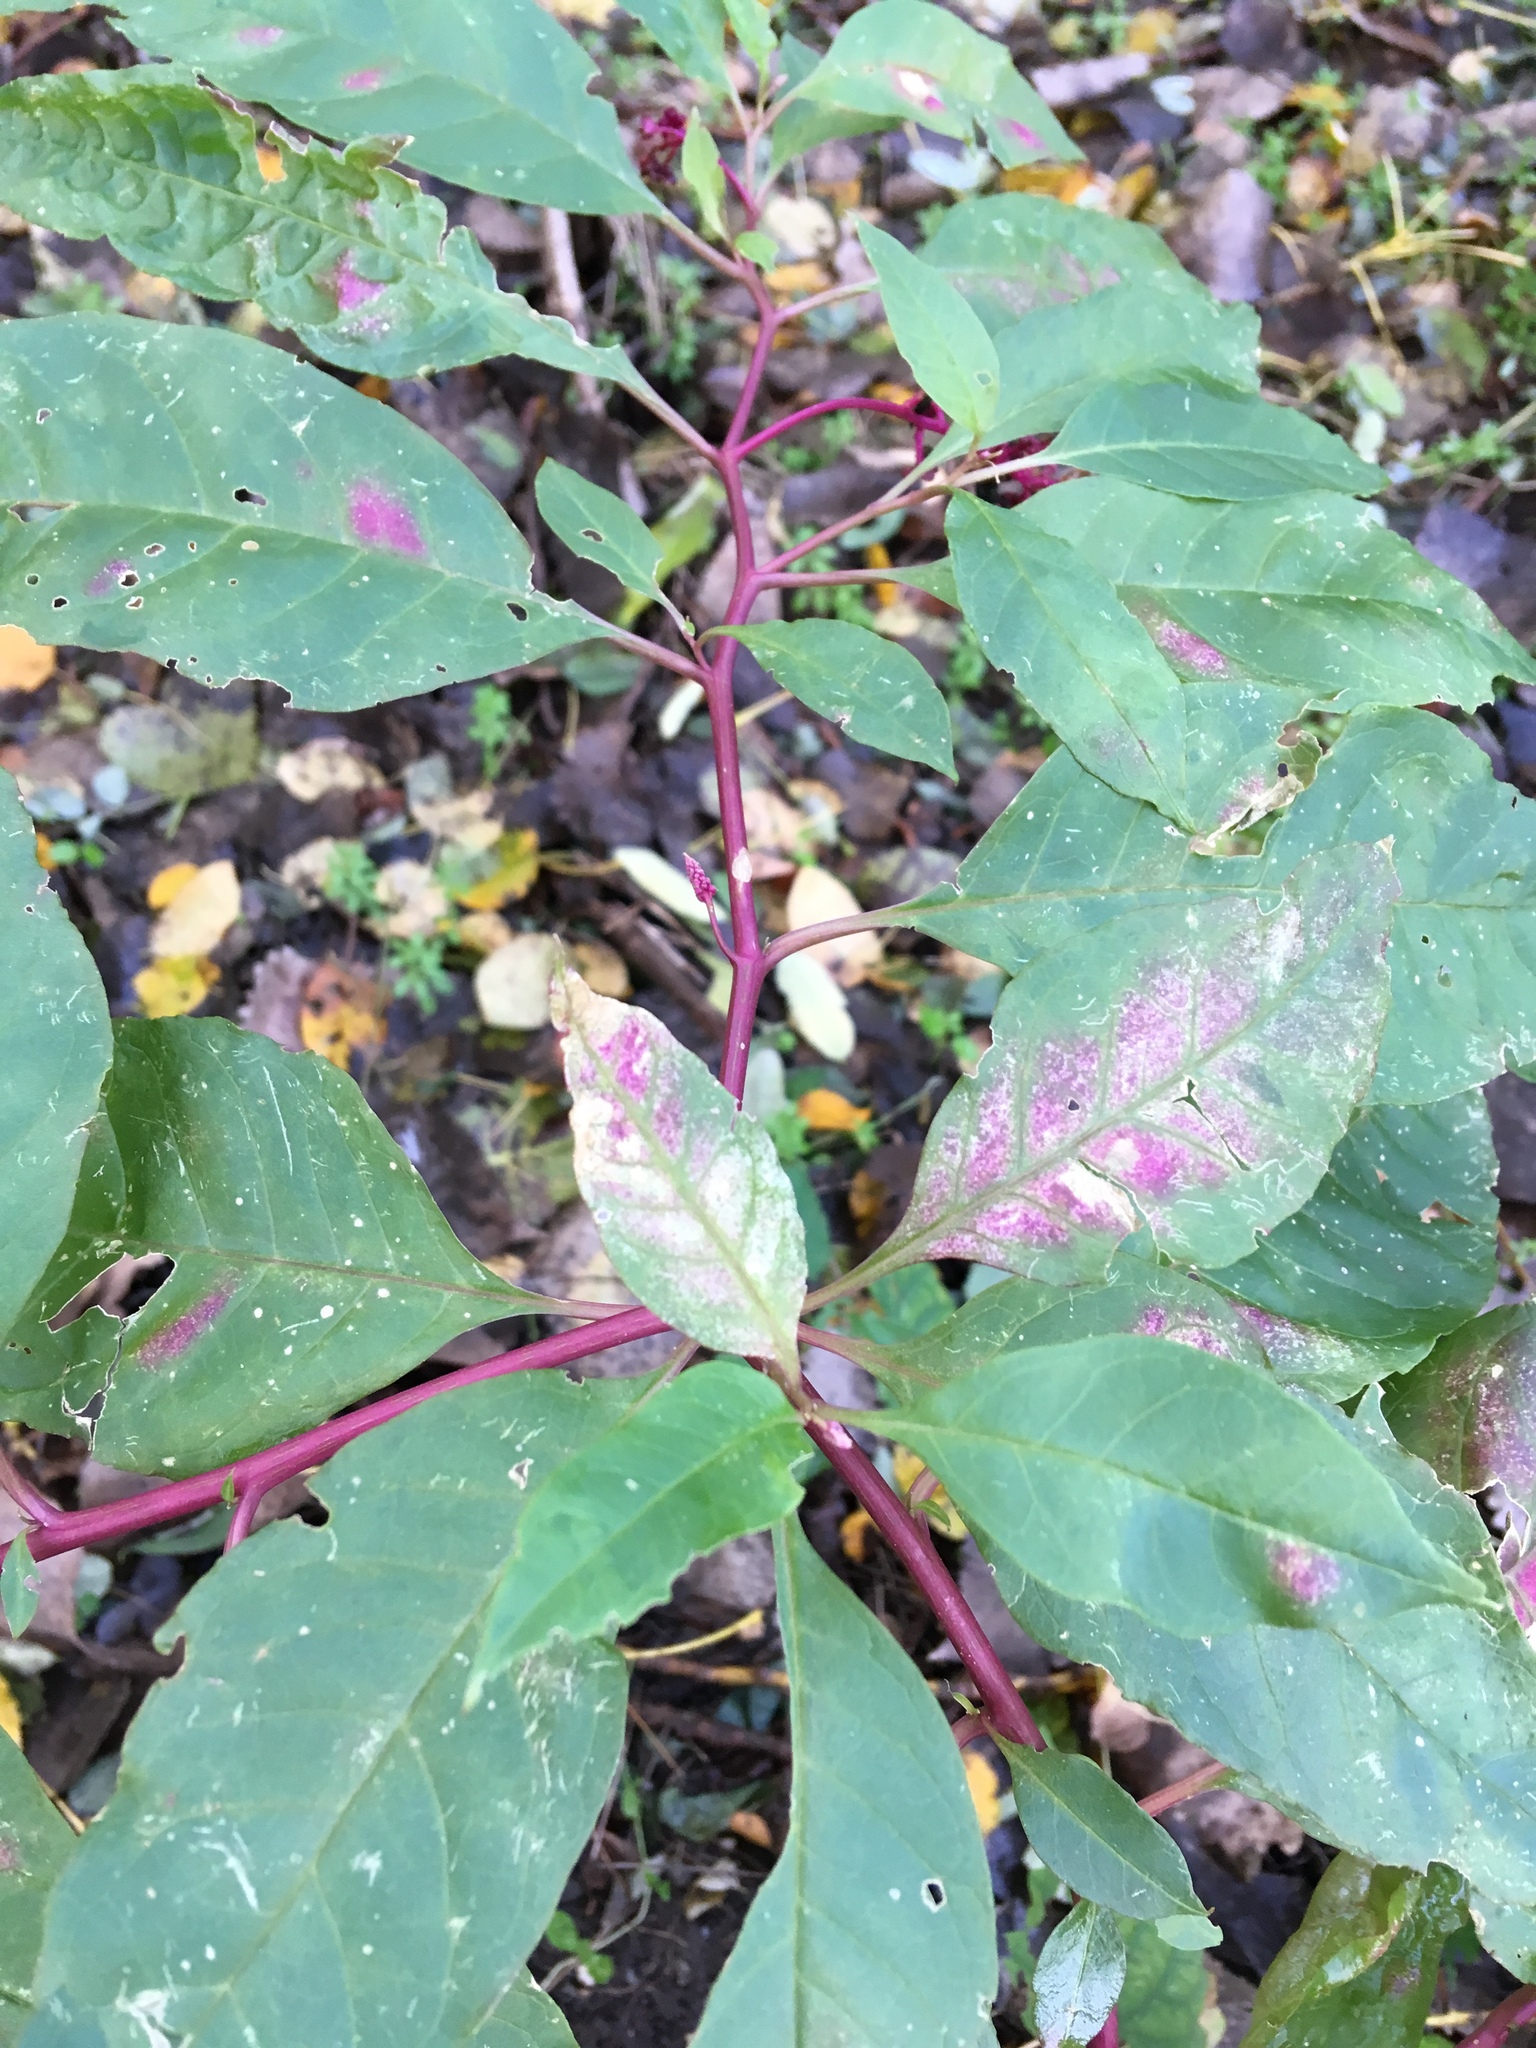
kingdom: Plantae
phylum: Tracheophyta
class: Magnoliopsida
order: Caryophyllales
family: Phytolaccaceae
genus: Phytolacca
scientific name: Phytolacca americana
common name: American pokeweed
